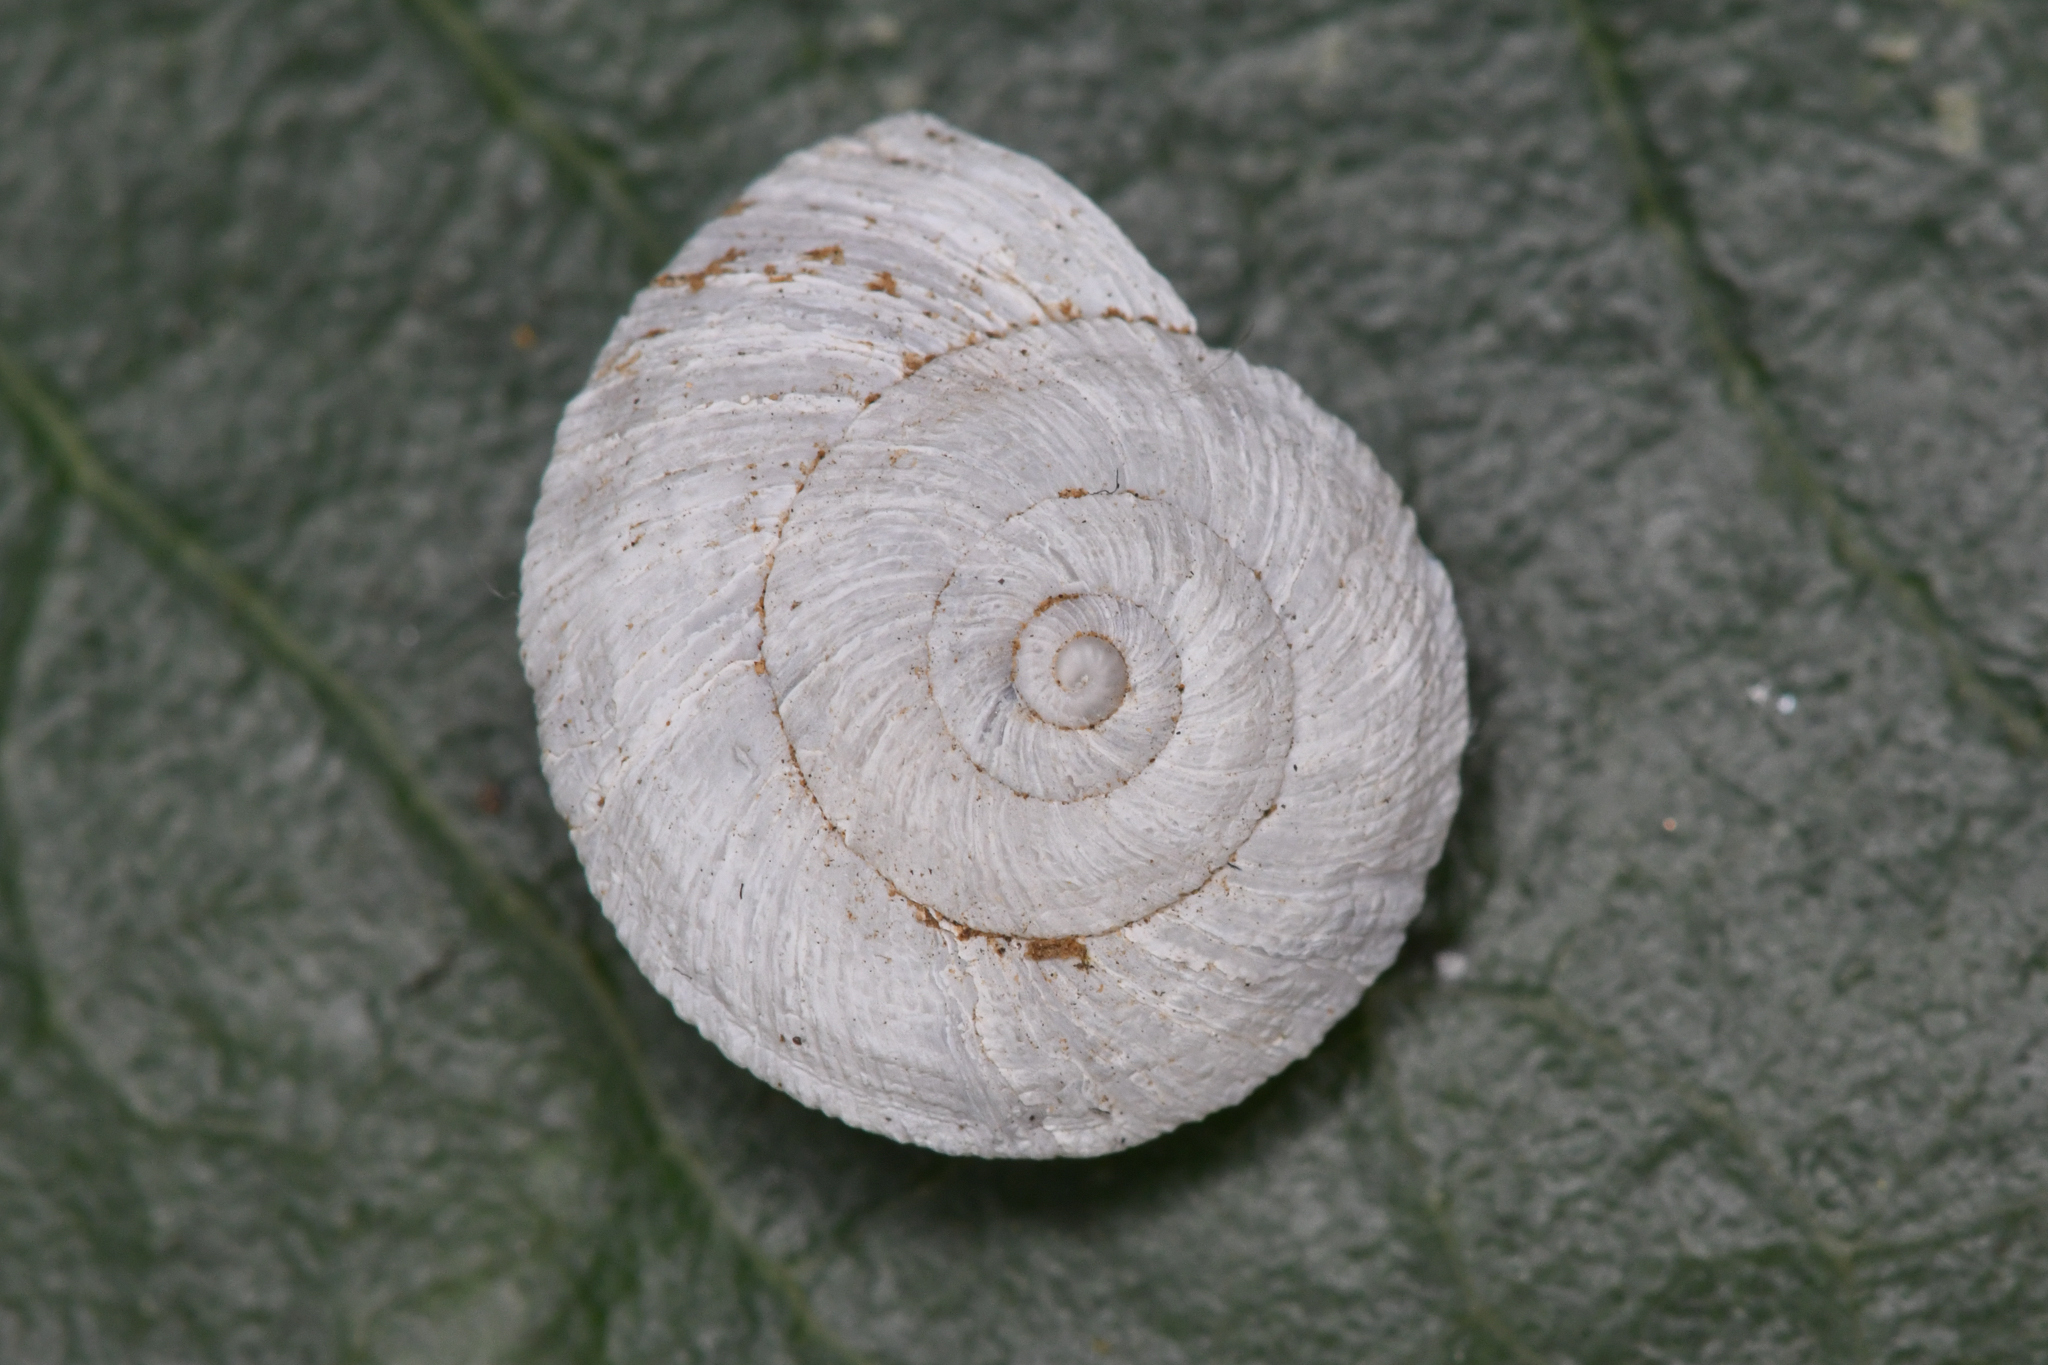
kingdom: Animalia
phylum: Mollusca
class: Gastropoda
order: Stylommatophora
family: Oreohelicidae
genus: Radiocentrum
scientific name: Radiocentrum avalonense
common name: Catalina mountain snail
